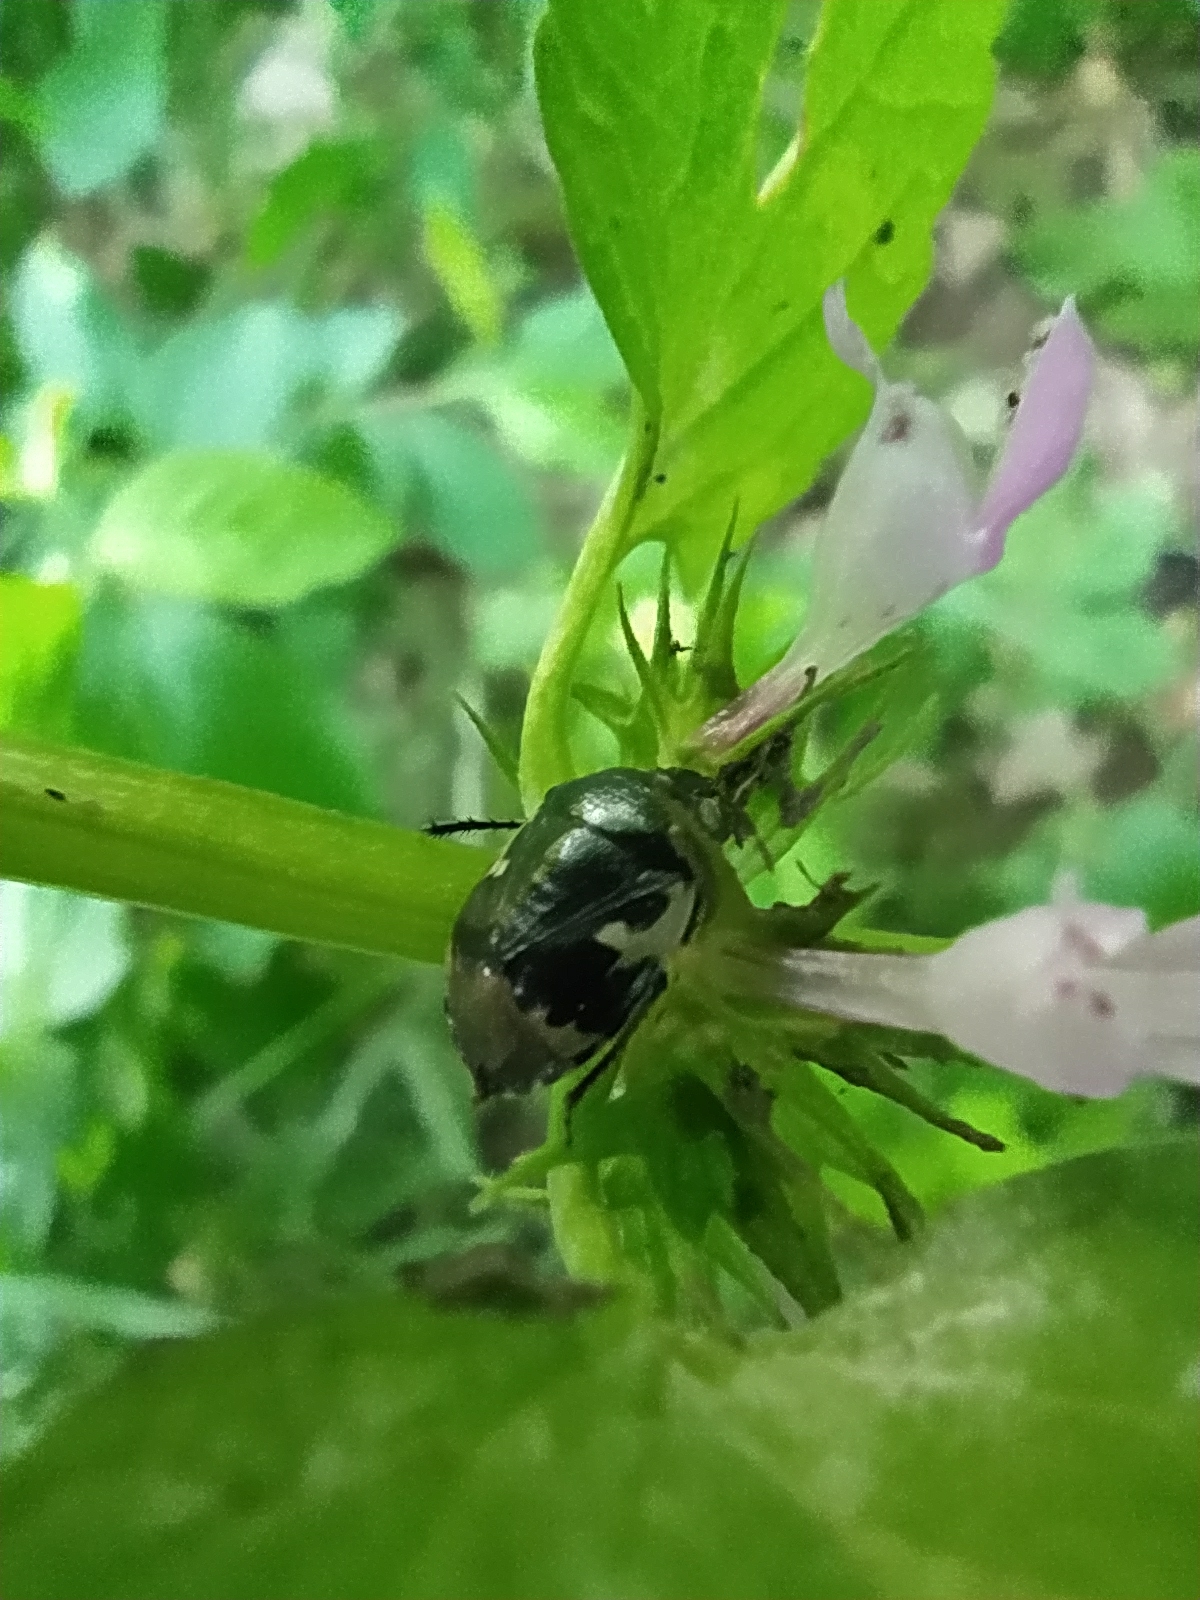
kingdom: Animalia
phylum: Arthropoda
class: Insecta
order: Hemiptera
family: Cydnidae
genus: Tritomegas
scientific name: Tritomegas bicolor
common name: Pied shieldbug
